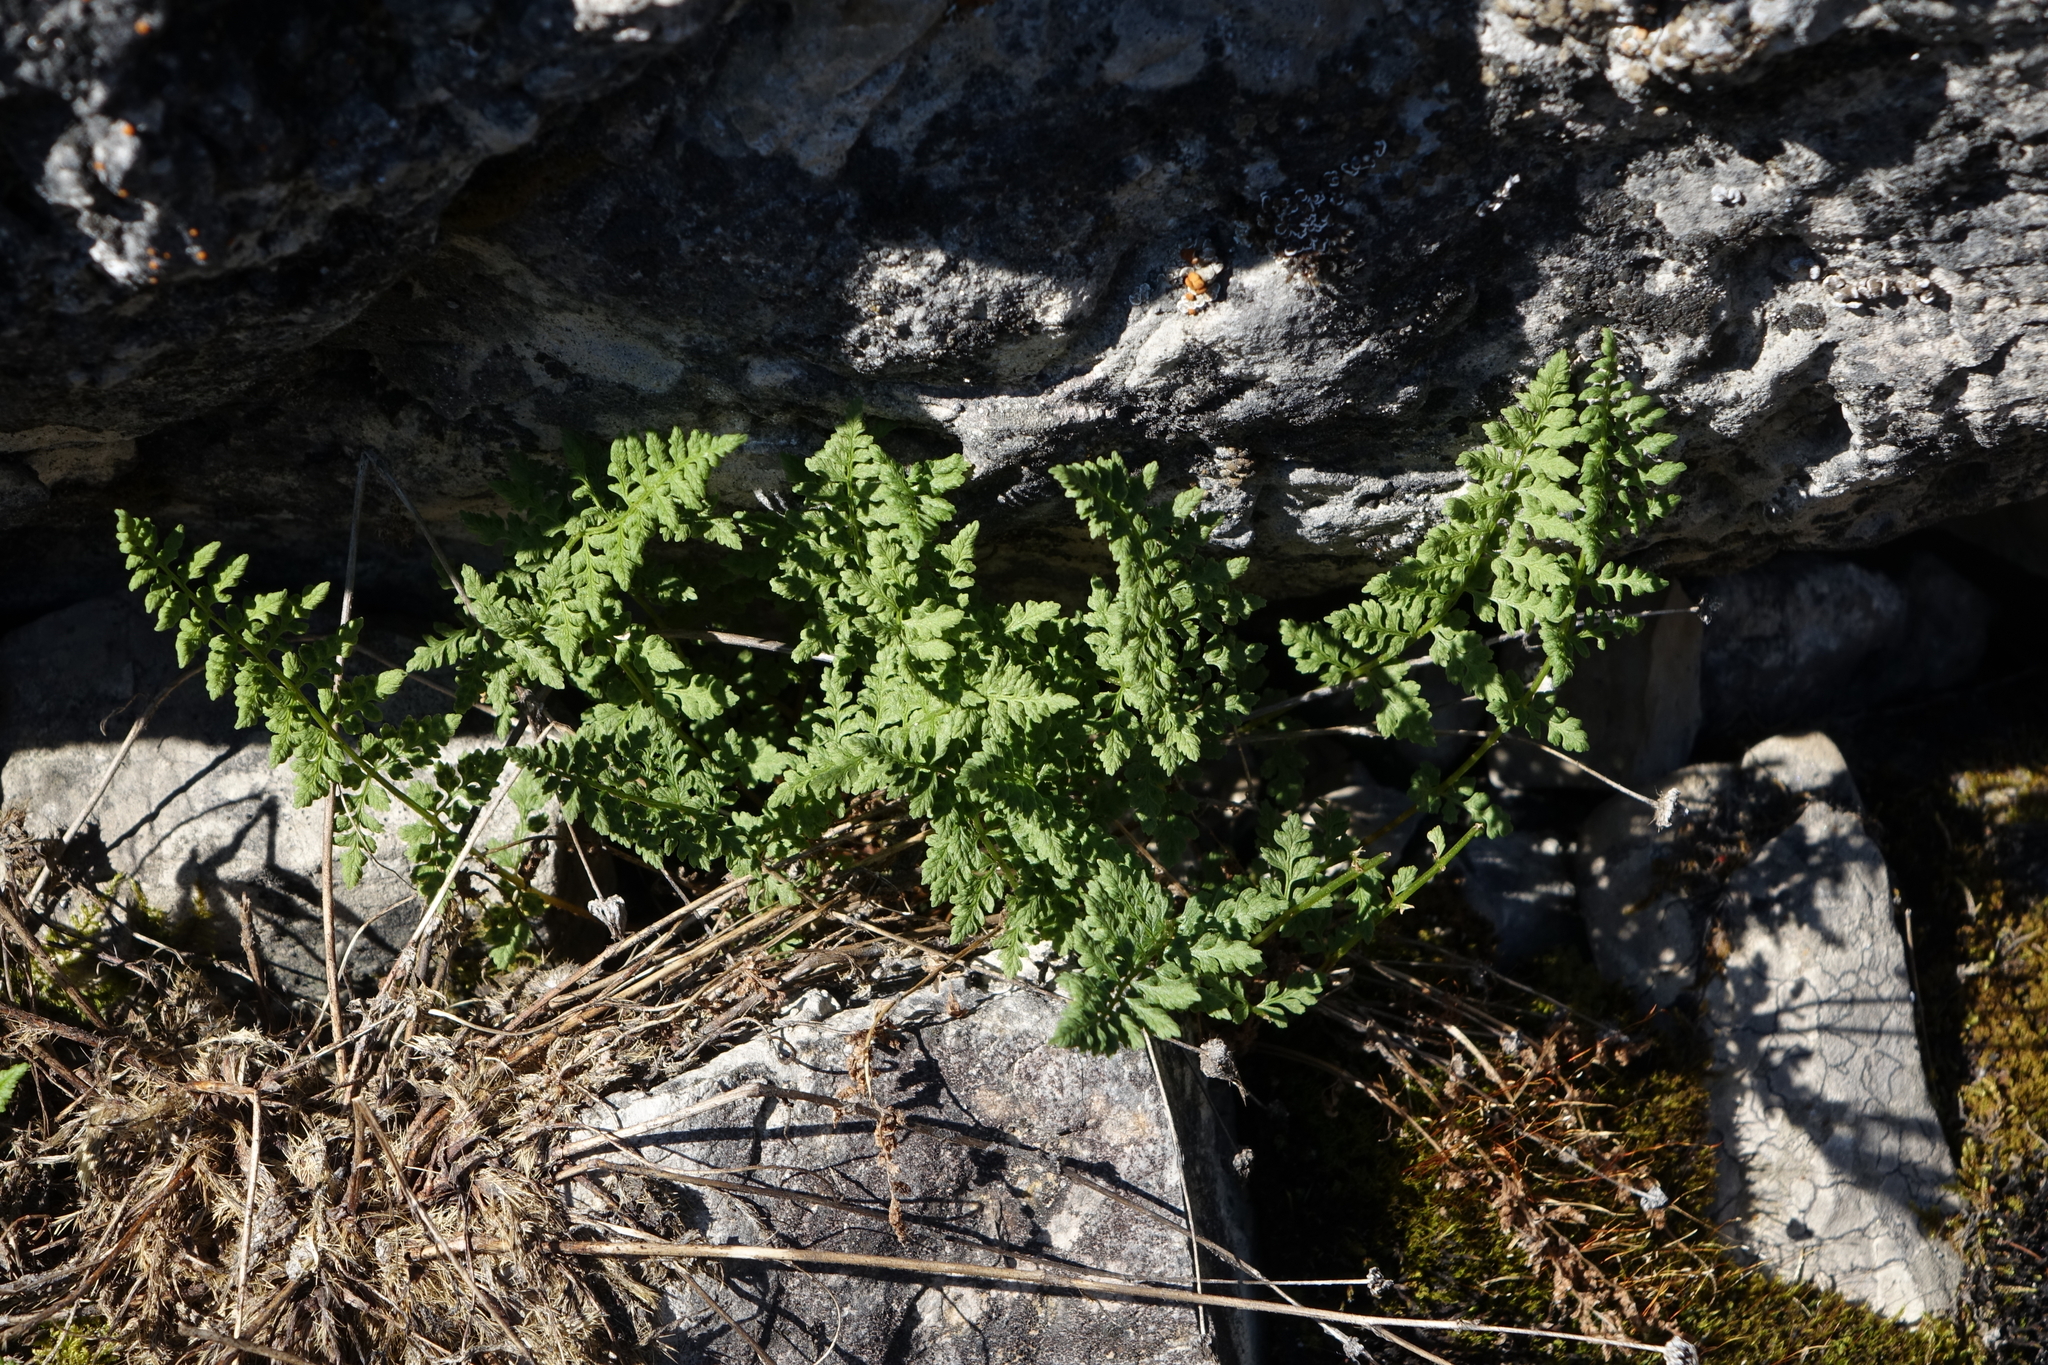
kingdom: Plantae
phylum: Tracheophyta
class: Polypodiopsida
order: Polypodiales
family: Woodsiaceae
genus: Woodsia
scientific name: Woodsia ilvensis
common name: Fragrant woodsia
